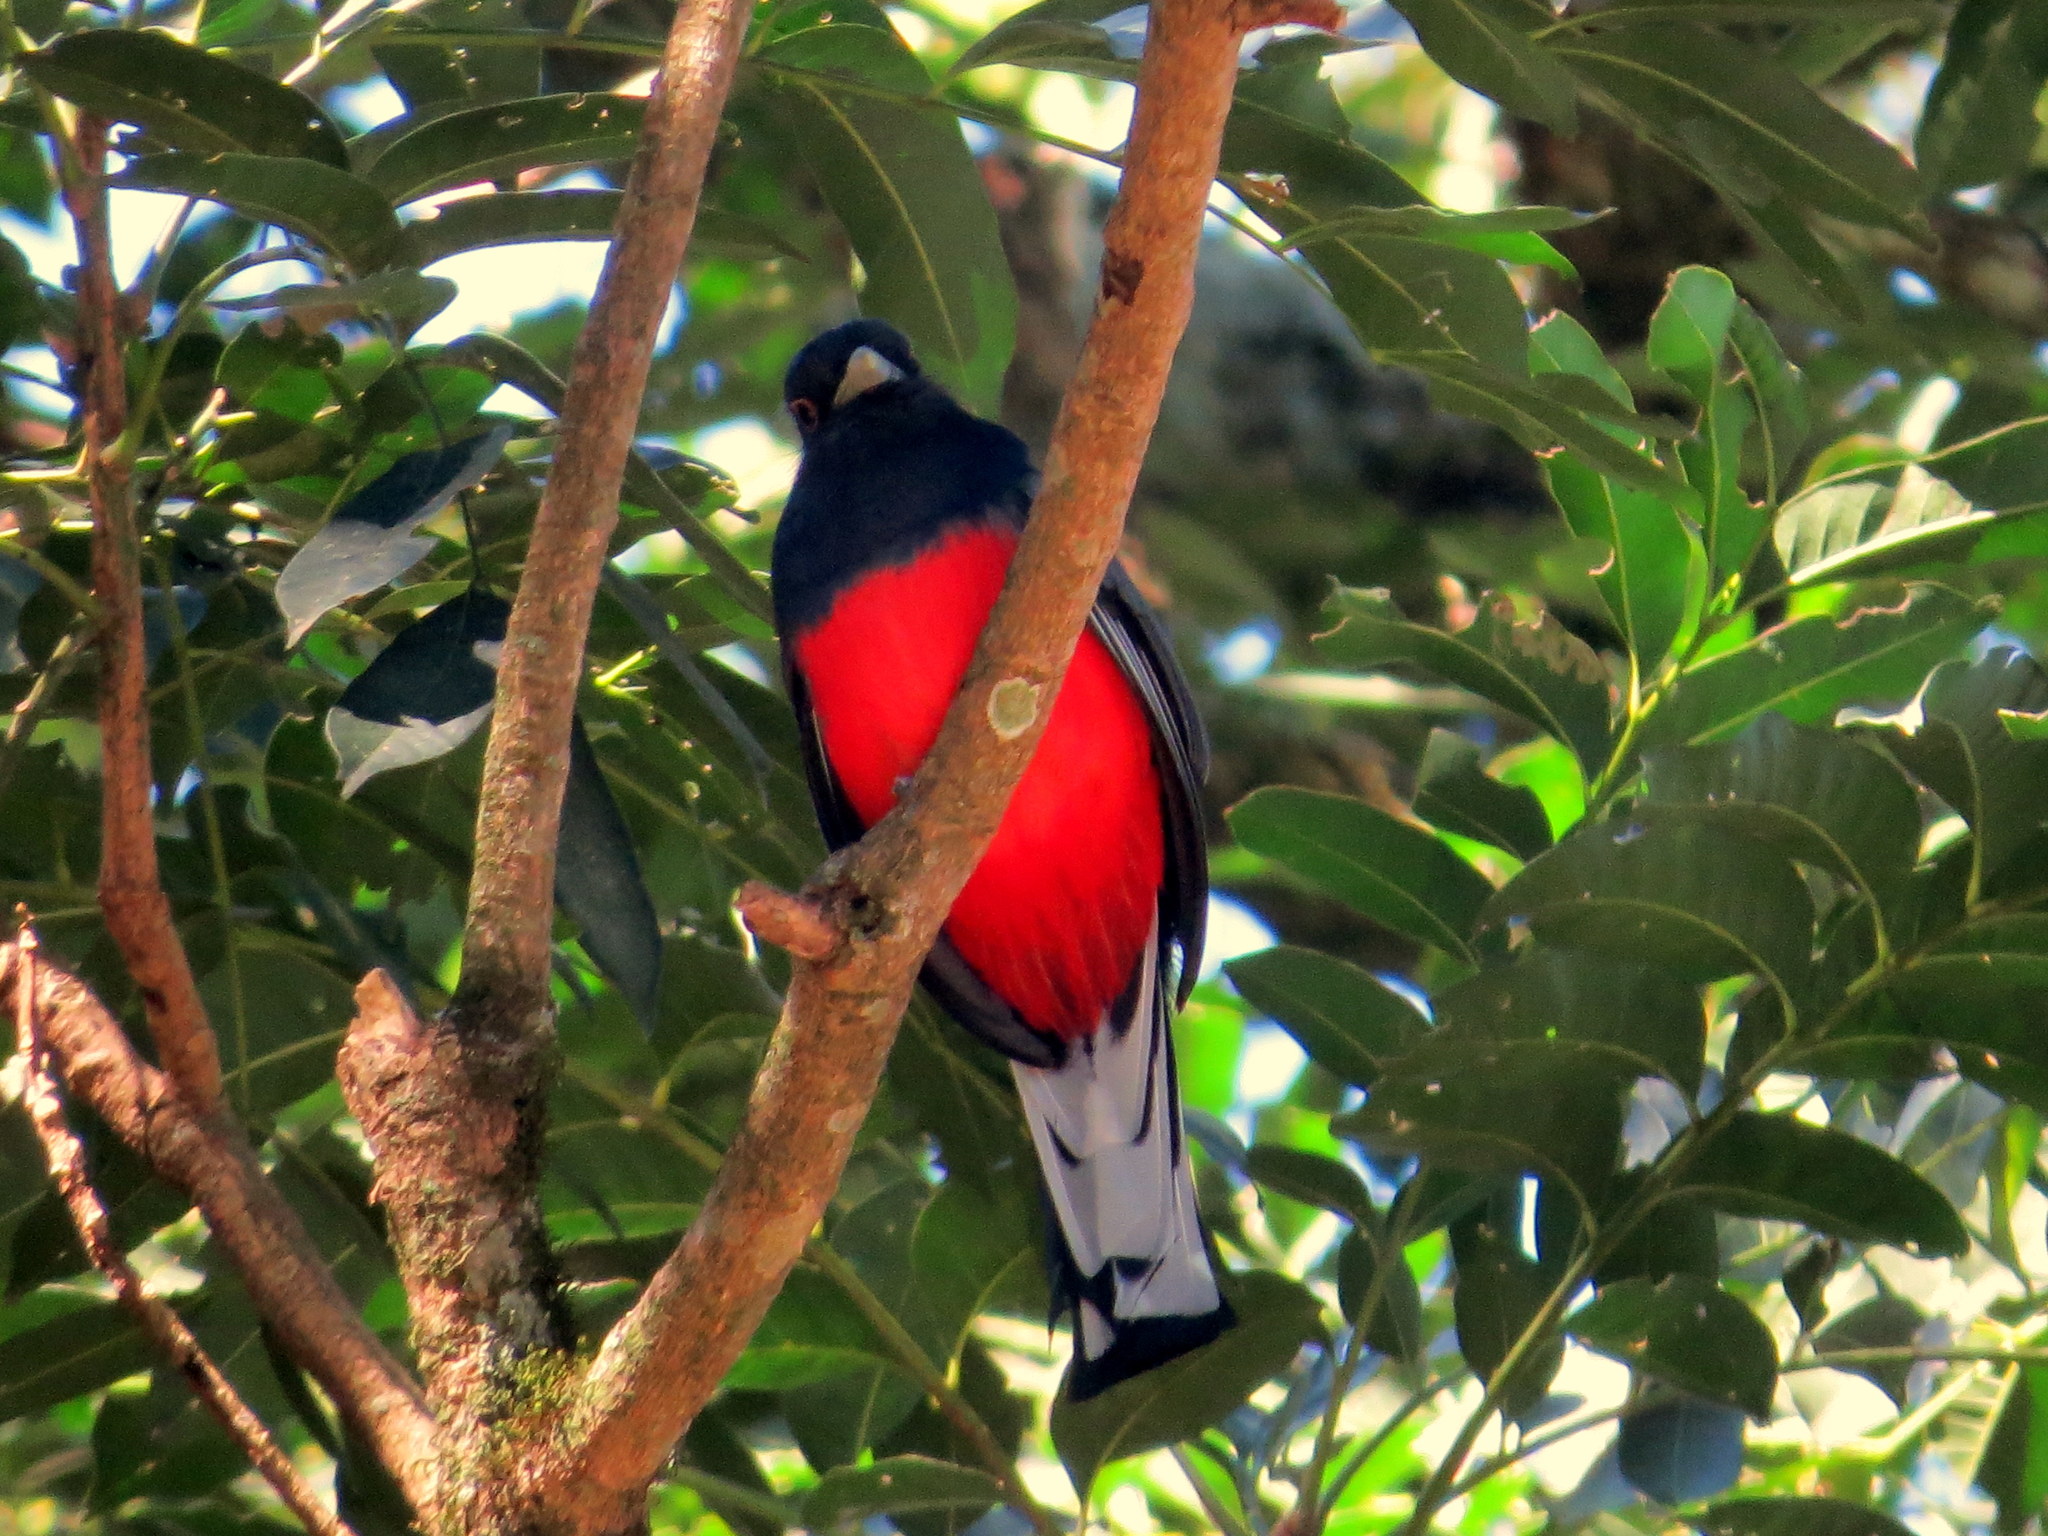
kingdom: Animalia
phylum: Chordata
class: Aves
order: Trogoniformes
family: Trogonidae
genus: Trogon
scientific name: Trogon surrucura
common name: Surucua trogon
